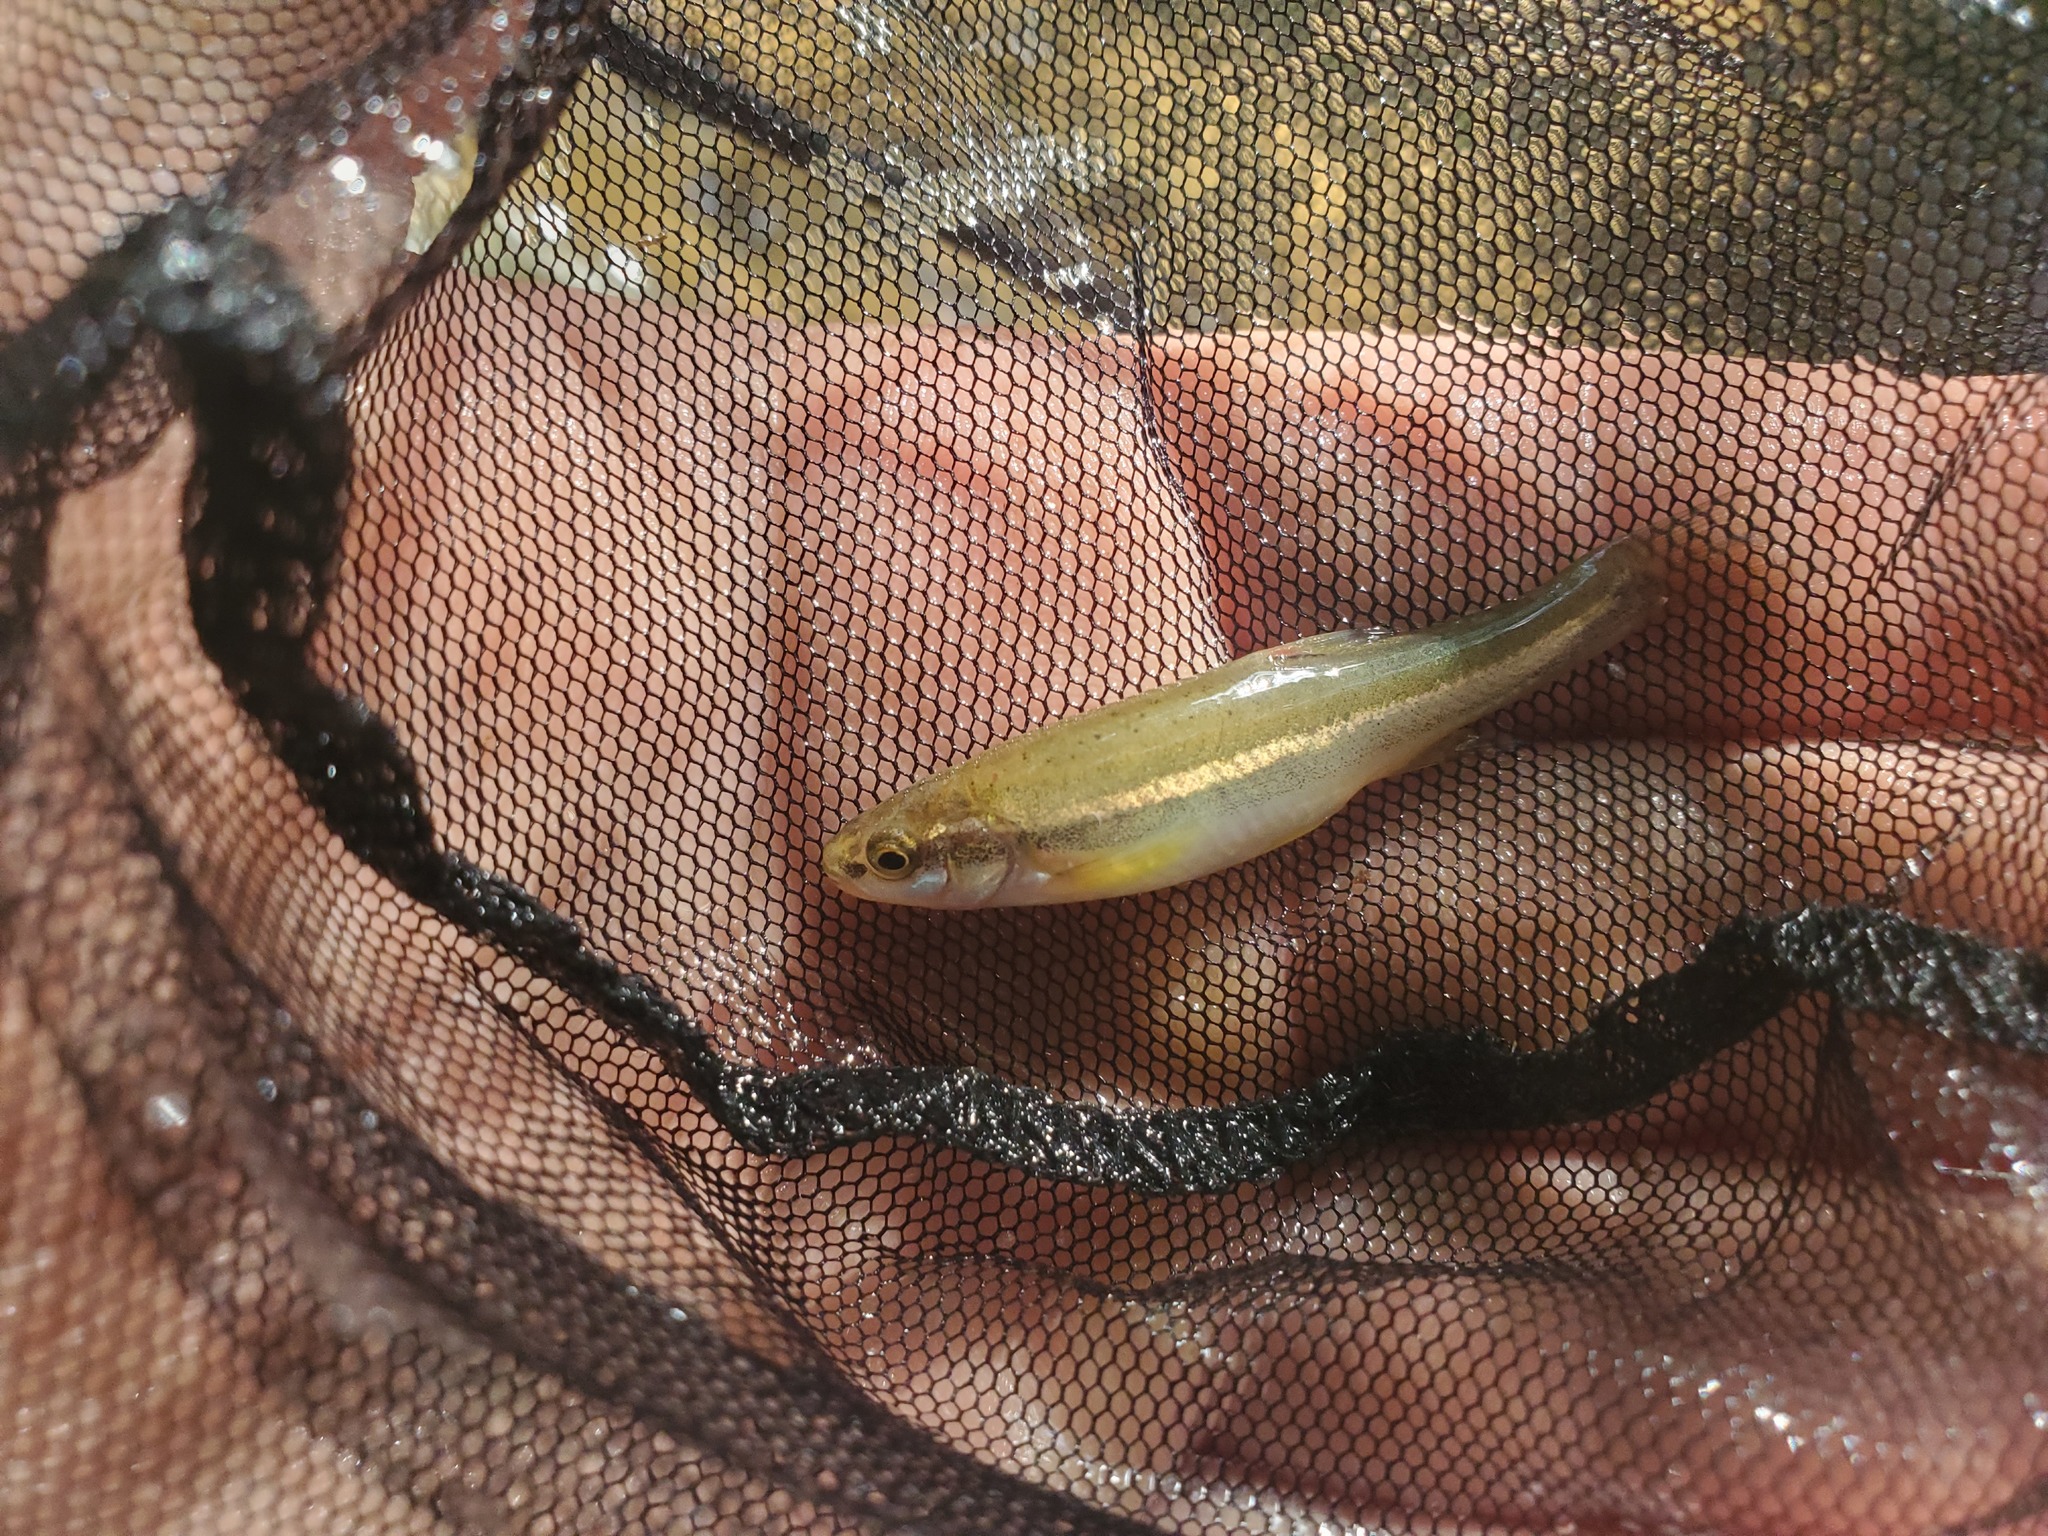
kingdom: Animalia
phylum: Chordata
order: Cypriniformes
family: Cyprinidae
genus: Chrosomus
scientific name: Chrosomus erythrogaster
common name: Southern redbelly dace
